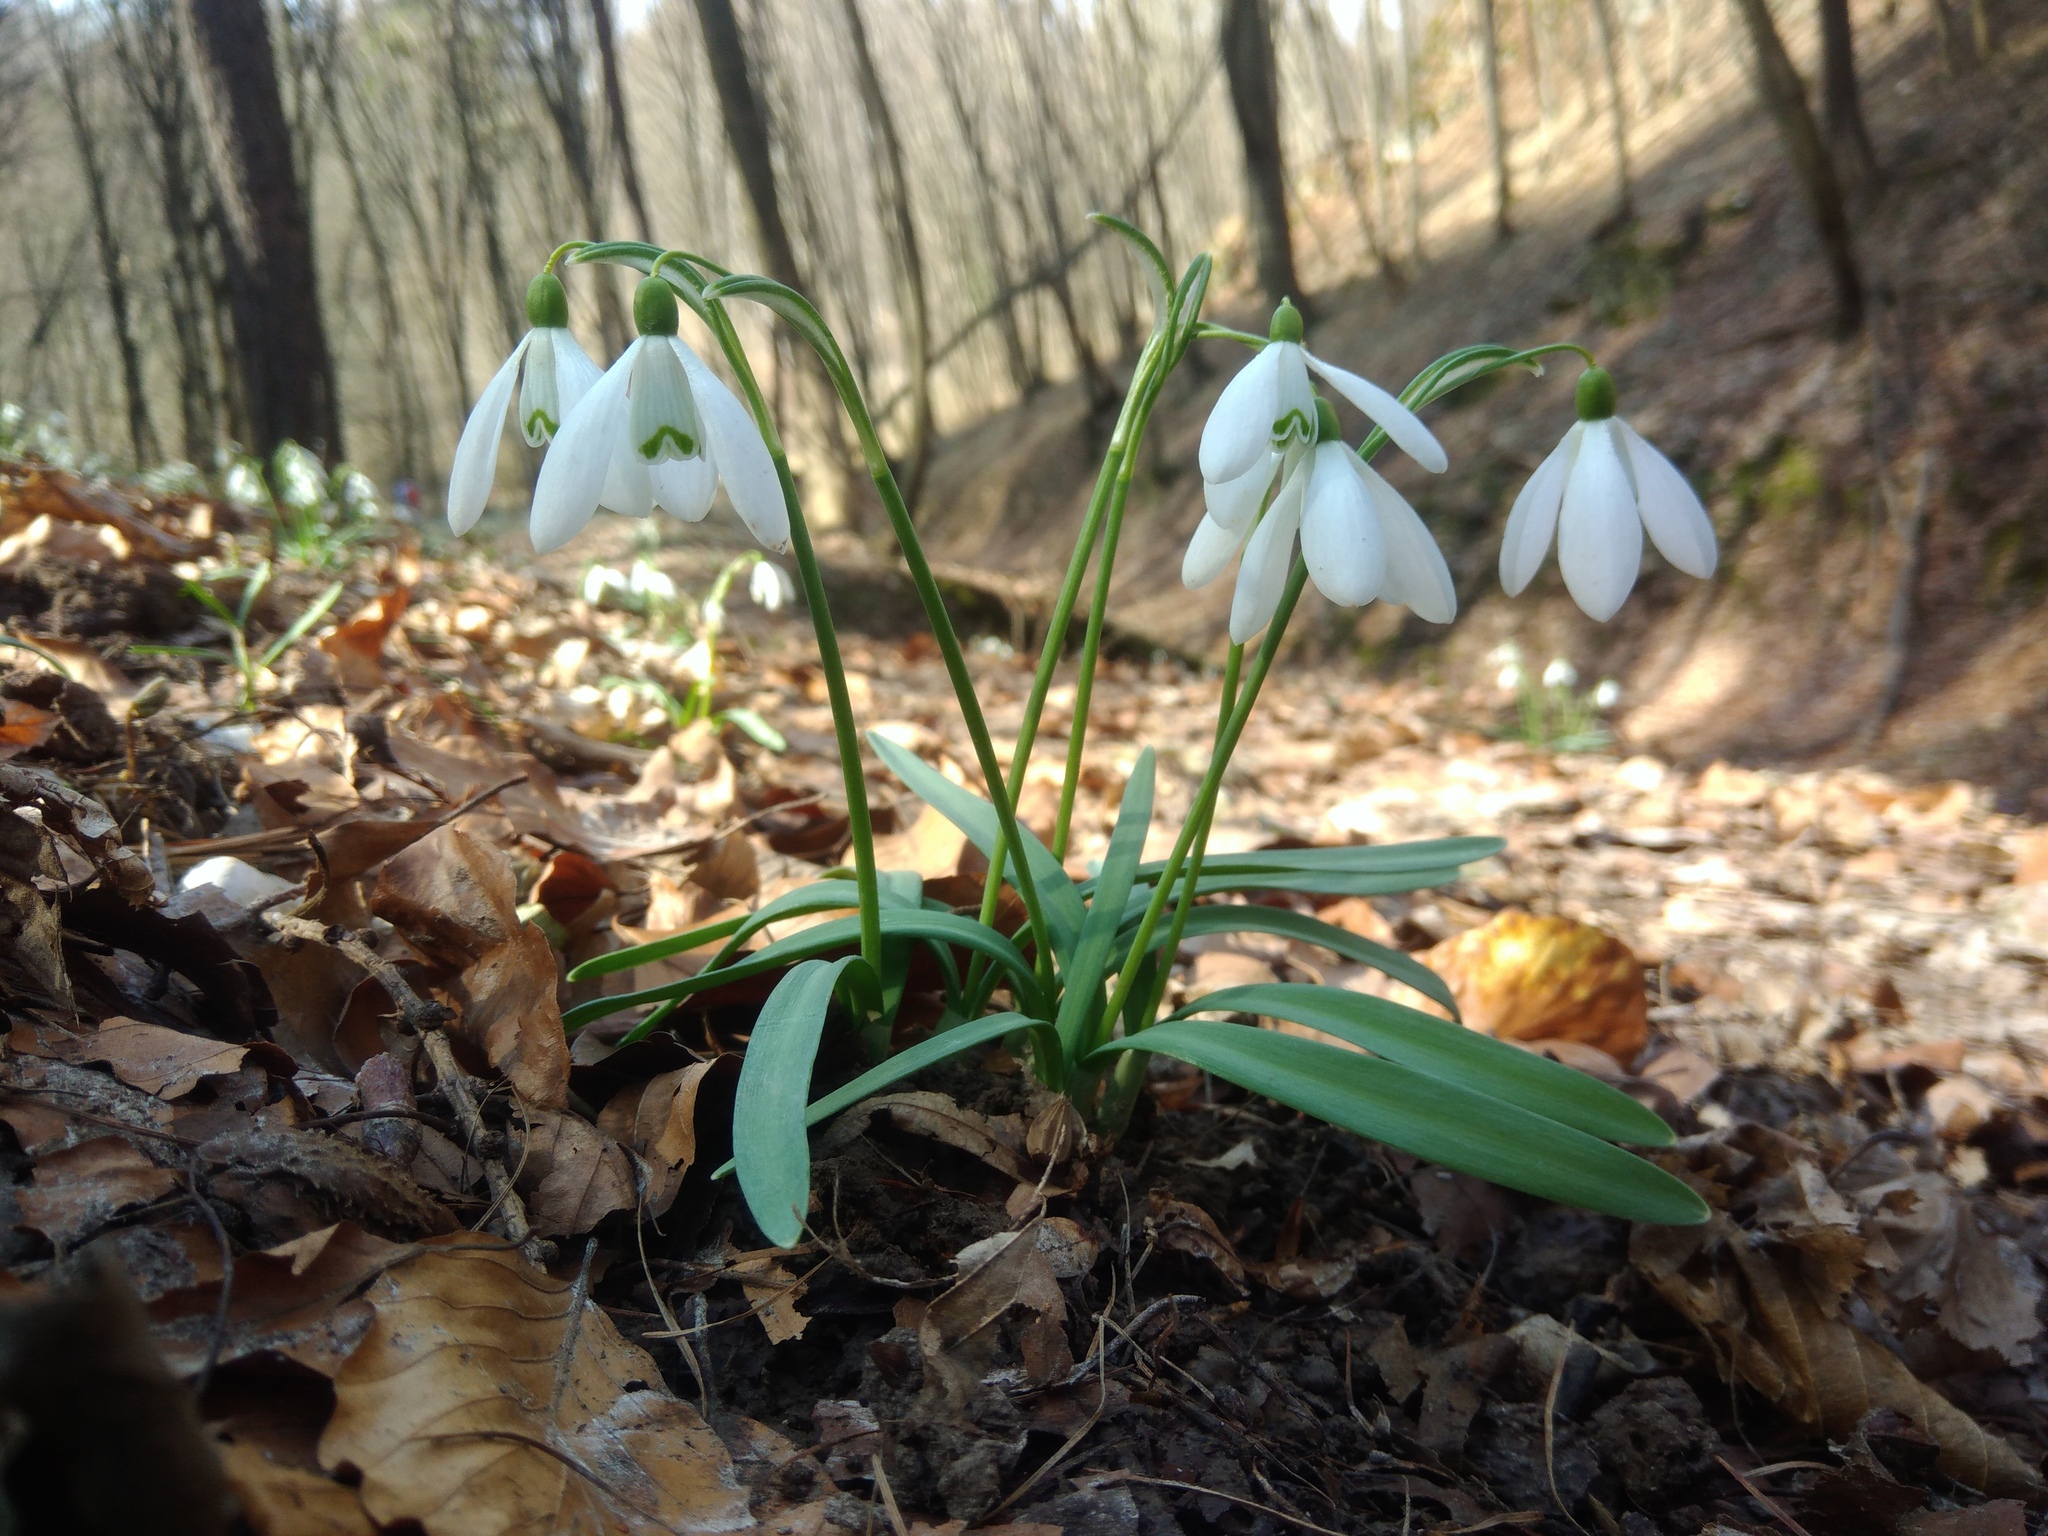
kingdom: Plantae
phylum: Tracheophyta
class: Liliopsida
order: Asparagales
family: Amaryllidaceae
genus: Galanthus
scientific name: Galanthus nivalis
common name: Snowdrop
